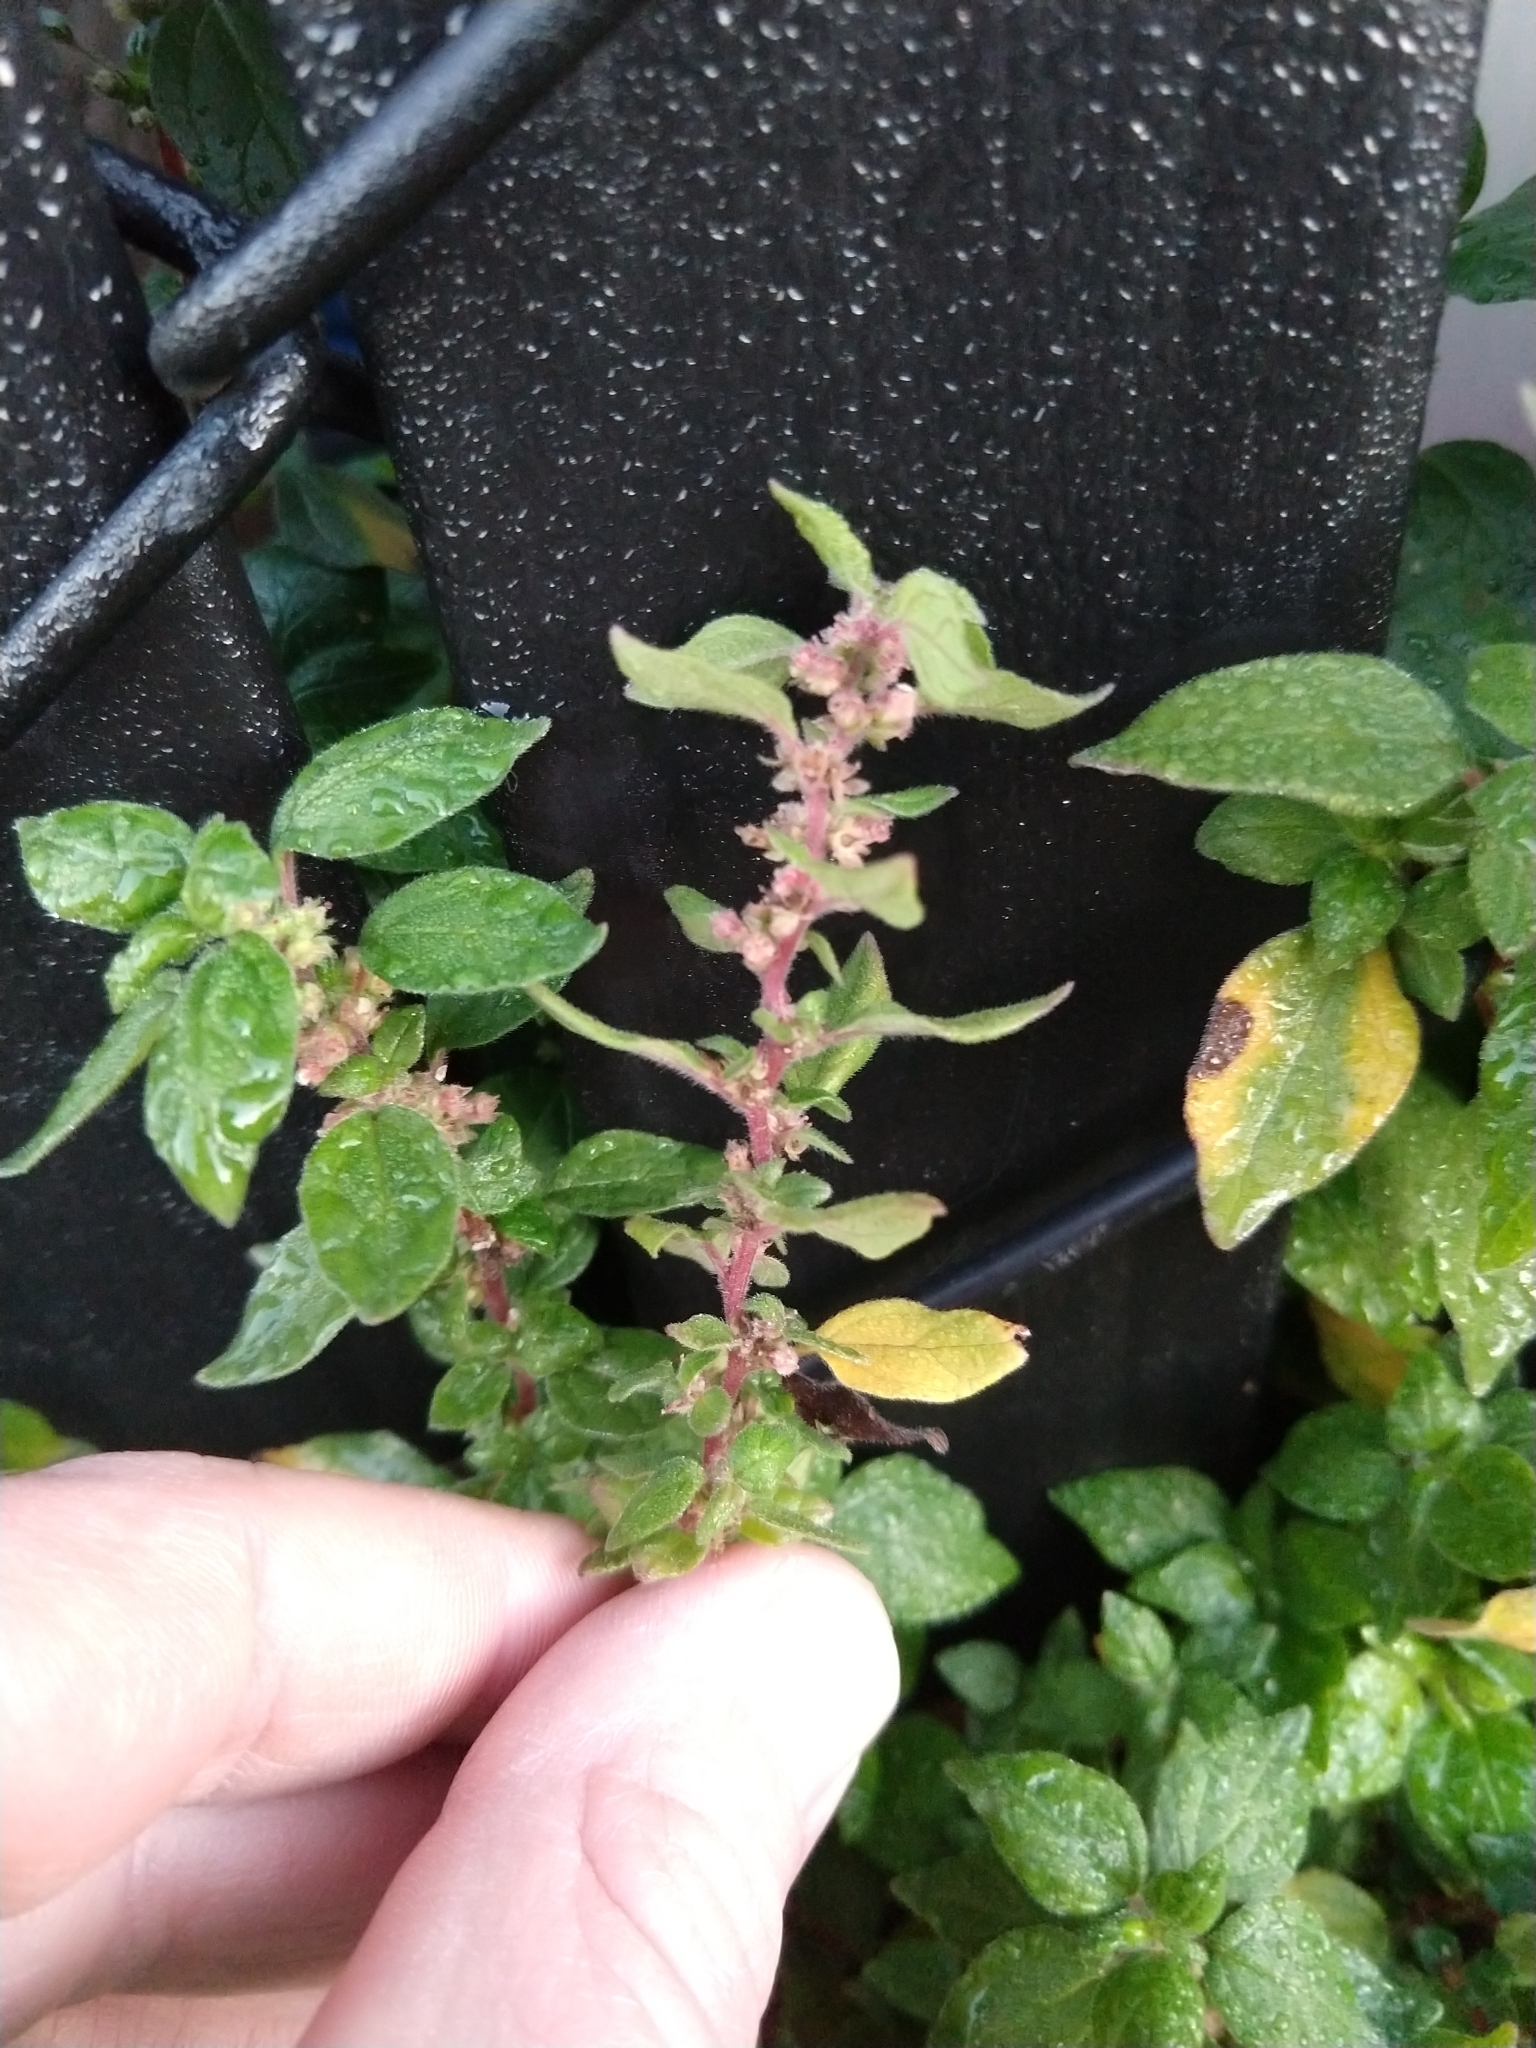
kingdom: Plantae
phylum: Tracheophyta
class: Magnoliopsida
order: Rosales
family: Urticaceae
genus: Parietaria
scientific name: Parietaria judaica
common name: Pellitory-of-the-wall
